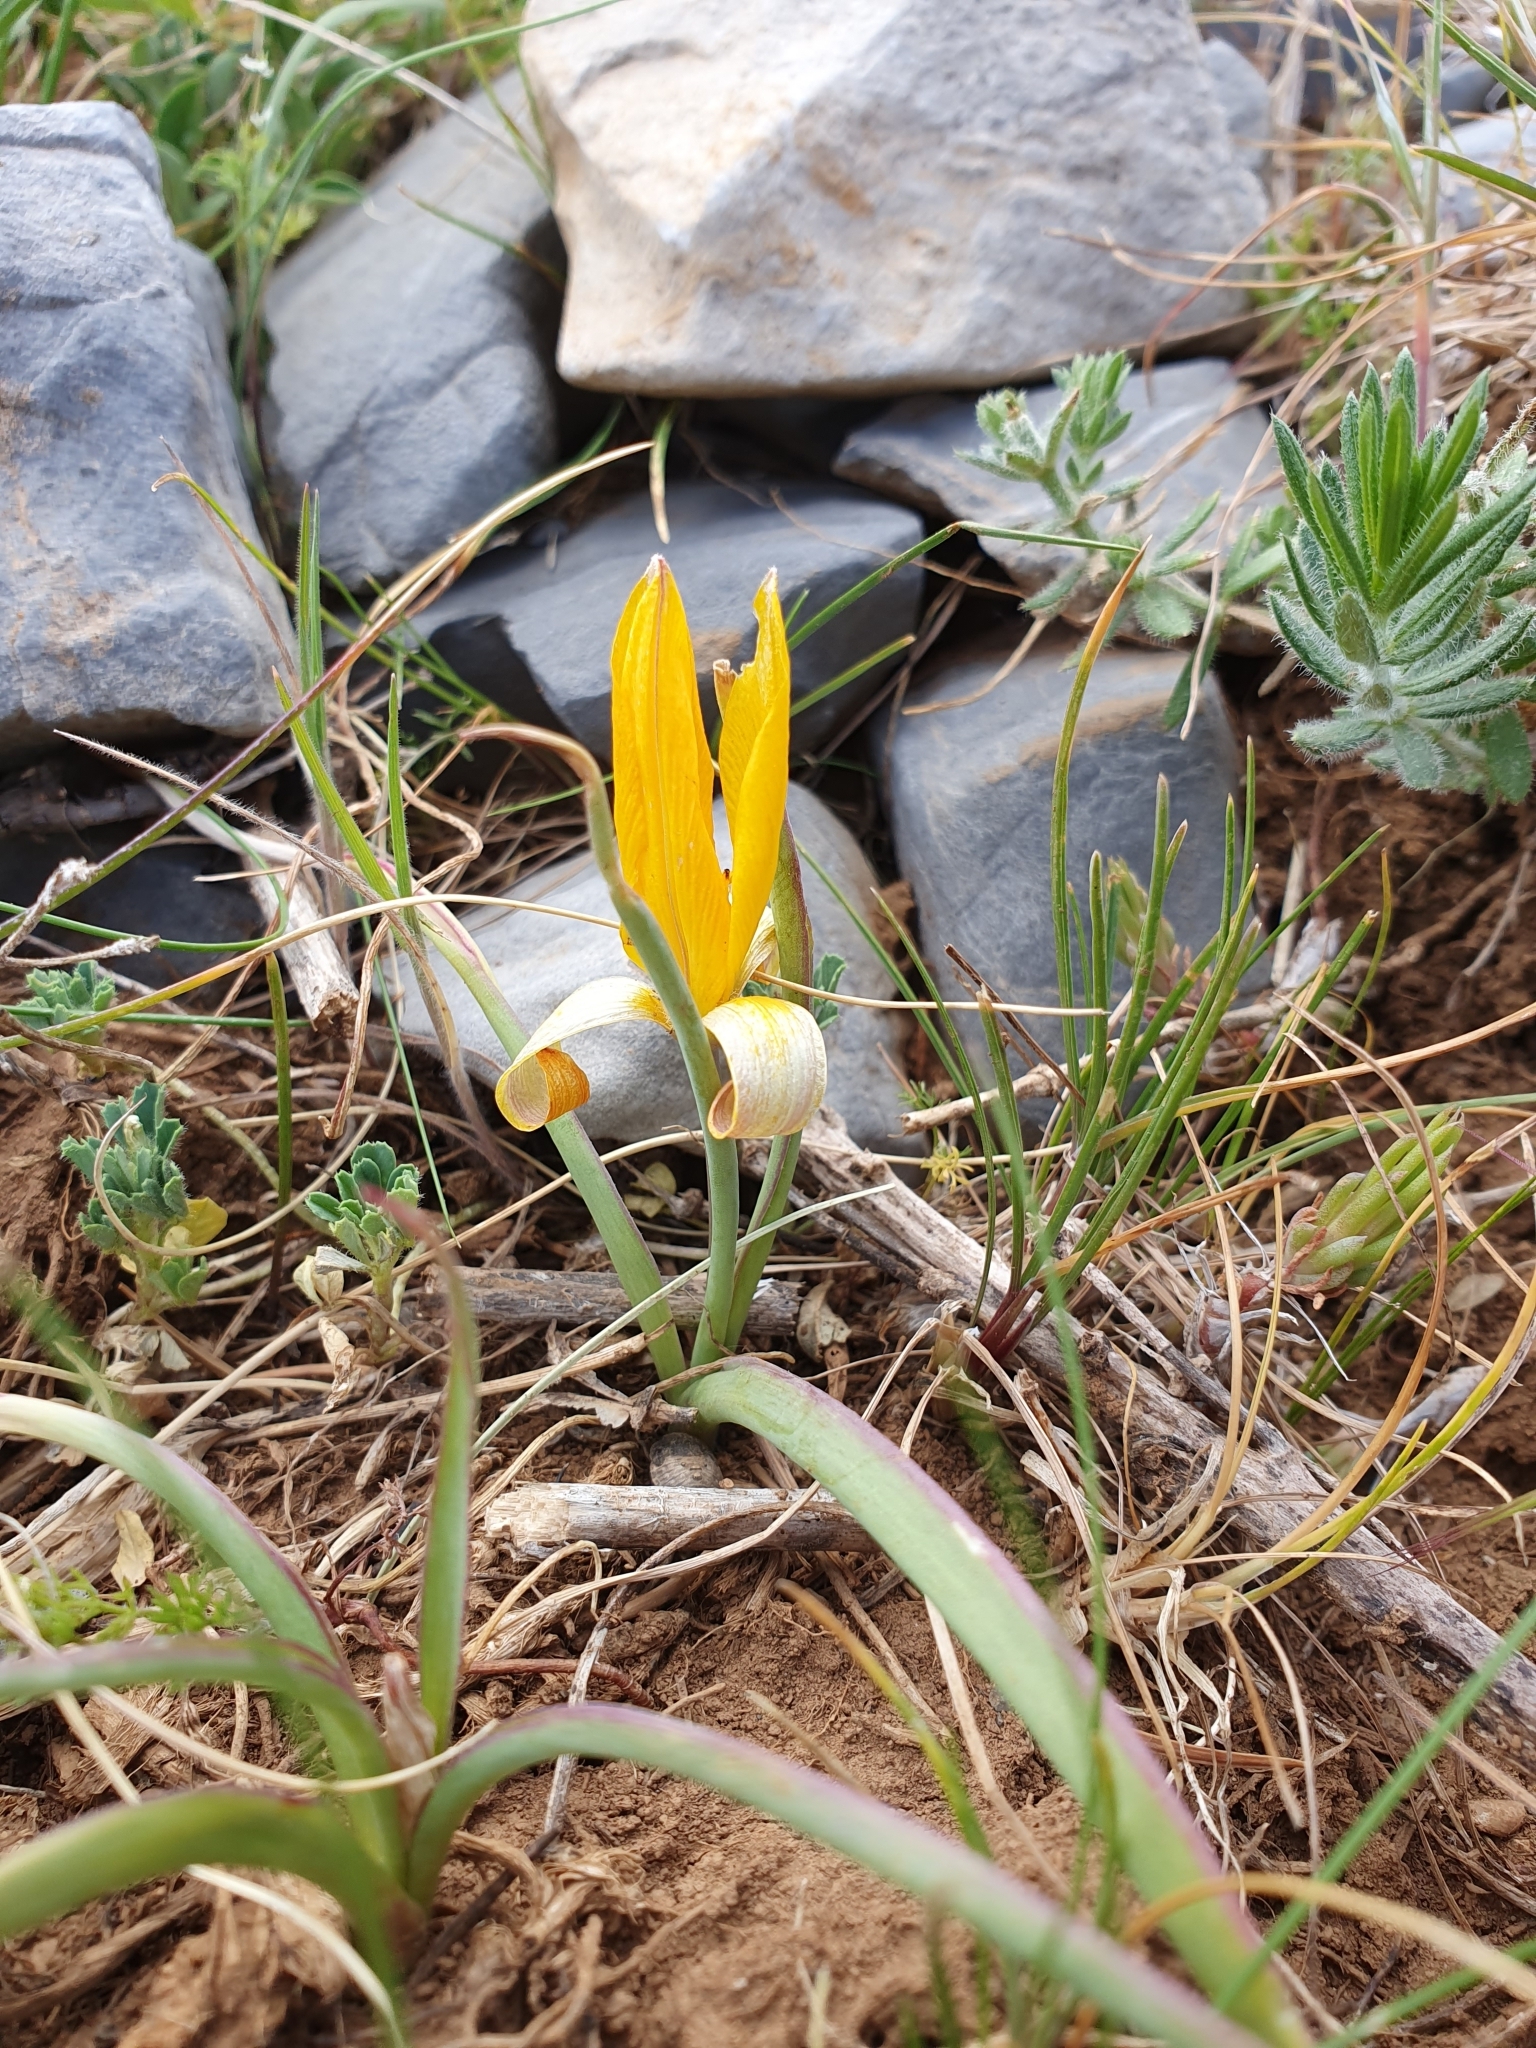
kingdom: Plantae
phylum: Tracheophyta
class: Liliopsida
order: Liliales
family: Liliaceae
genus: Tulipa
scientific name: Tulipa sylvestris
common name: Wild tulip
